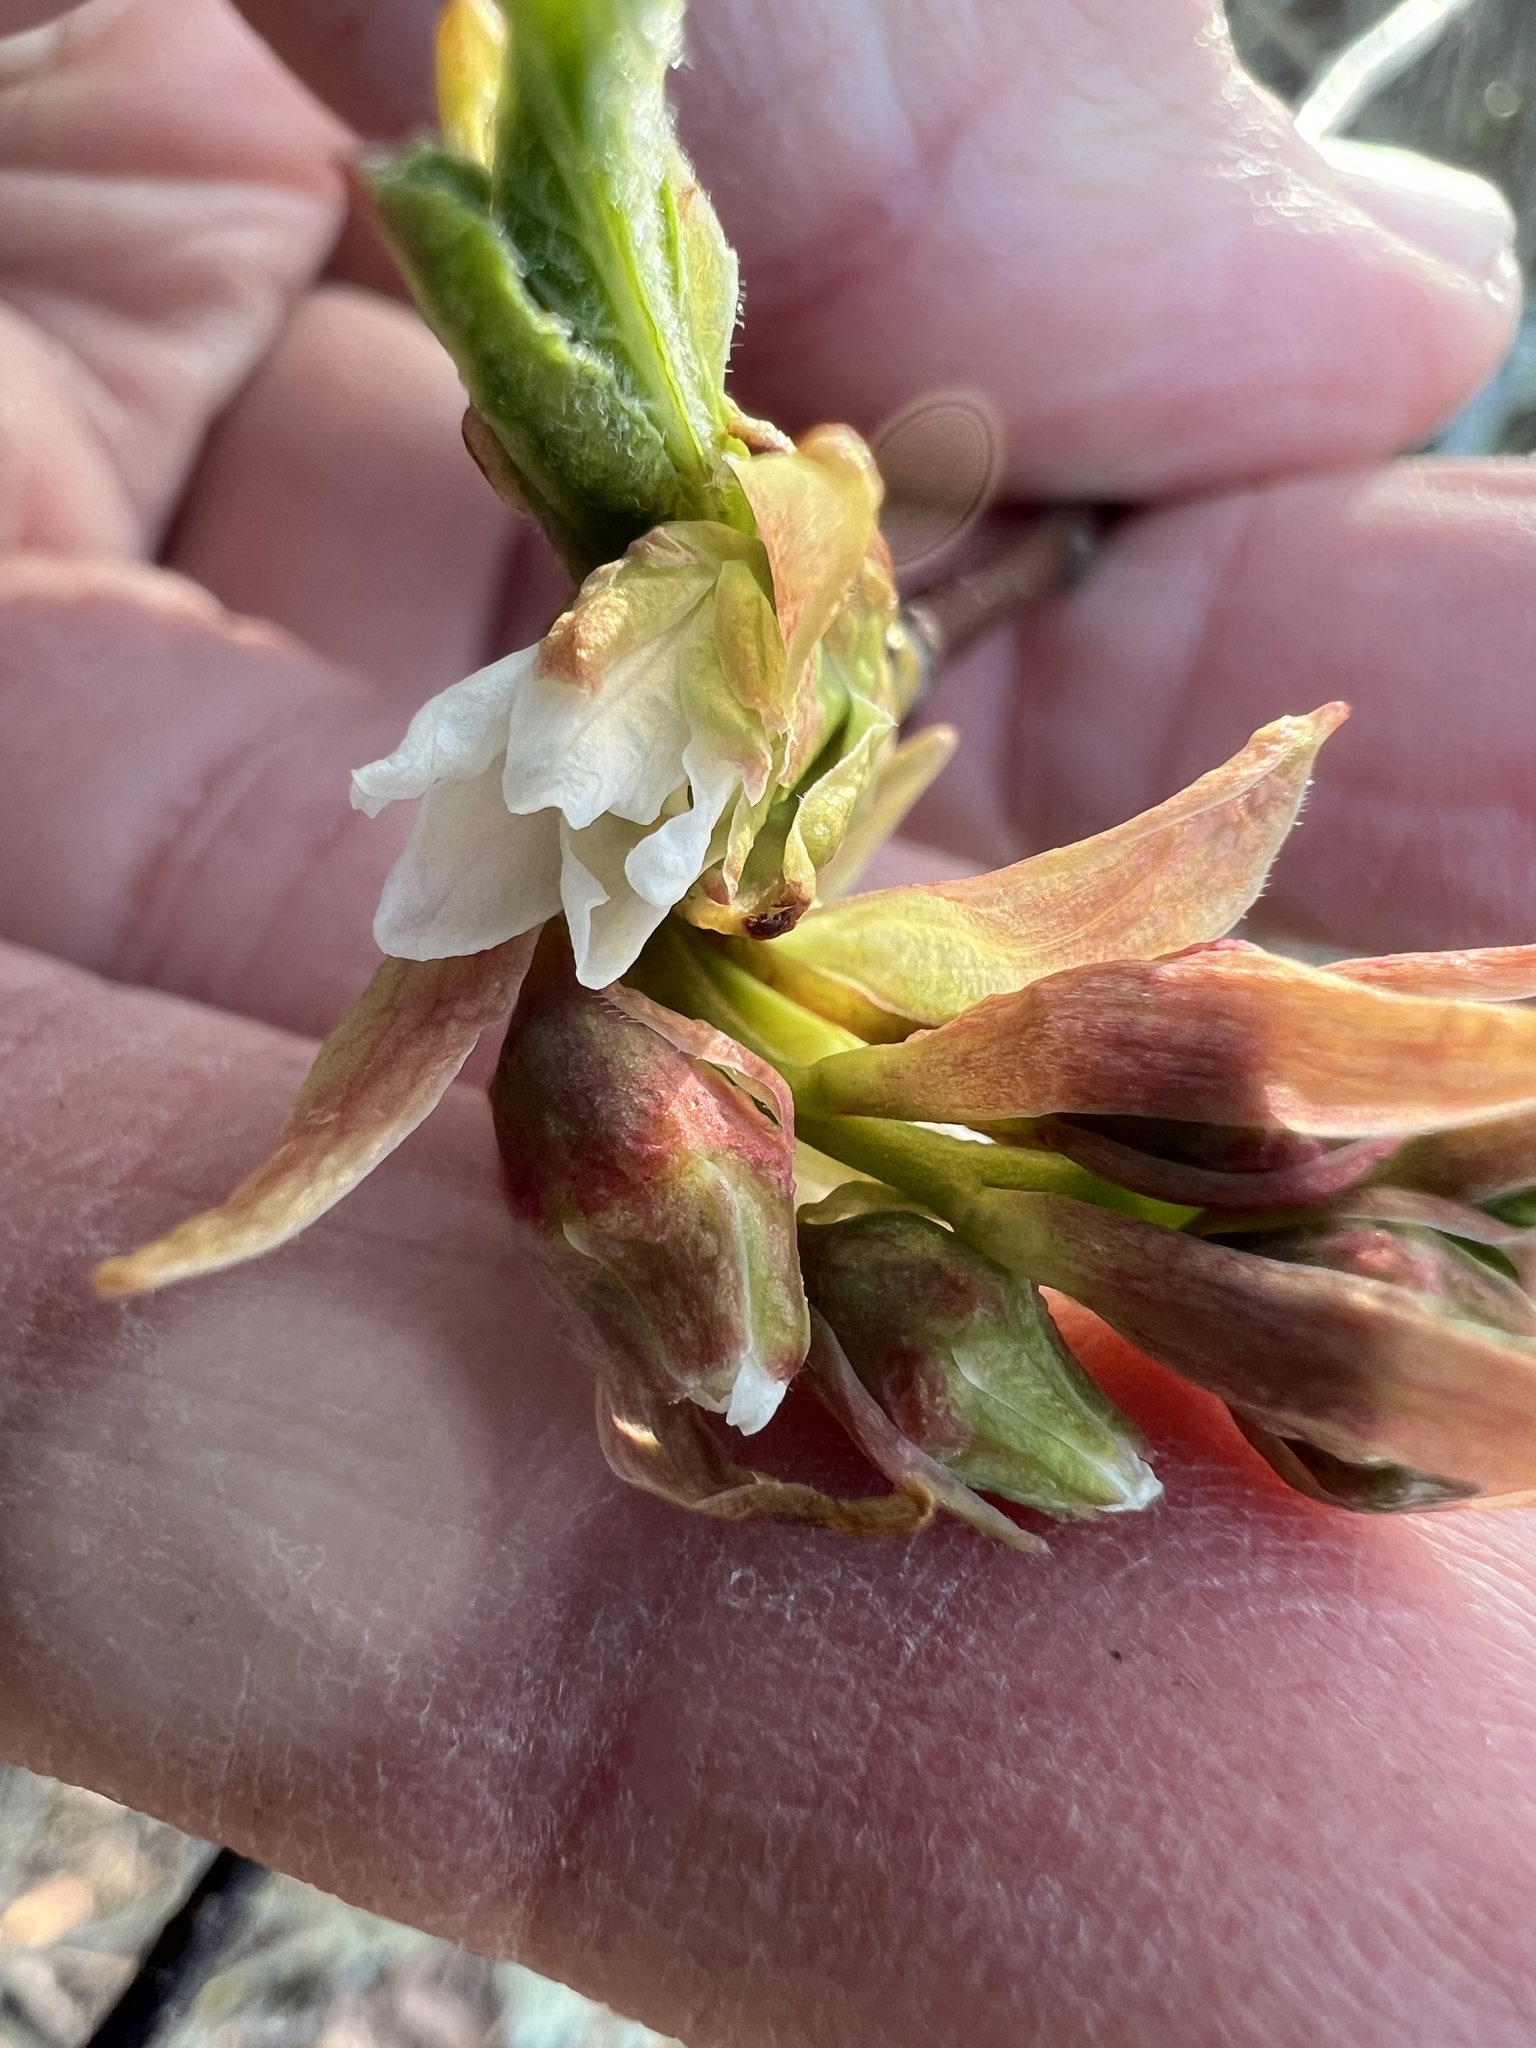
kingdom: Plantae
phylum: Tracheophyta
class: Magnoliopsida
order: Rosales
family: Rosaceae
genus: Oemleria
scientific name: Oemleria cerasiformis
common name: Osoberry
